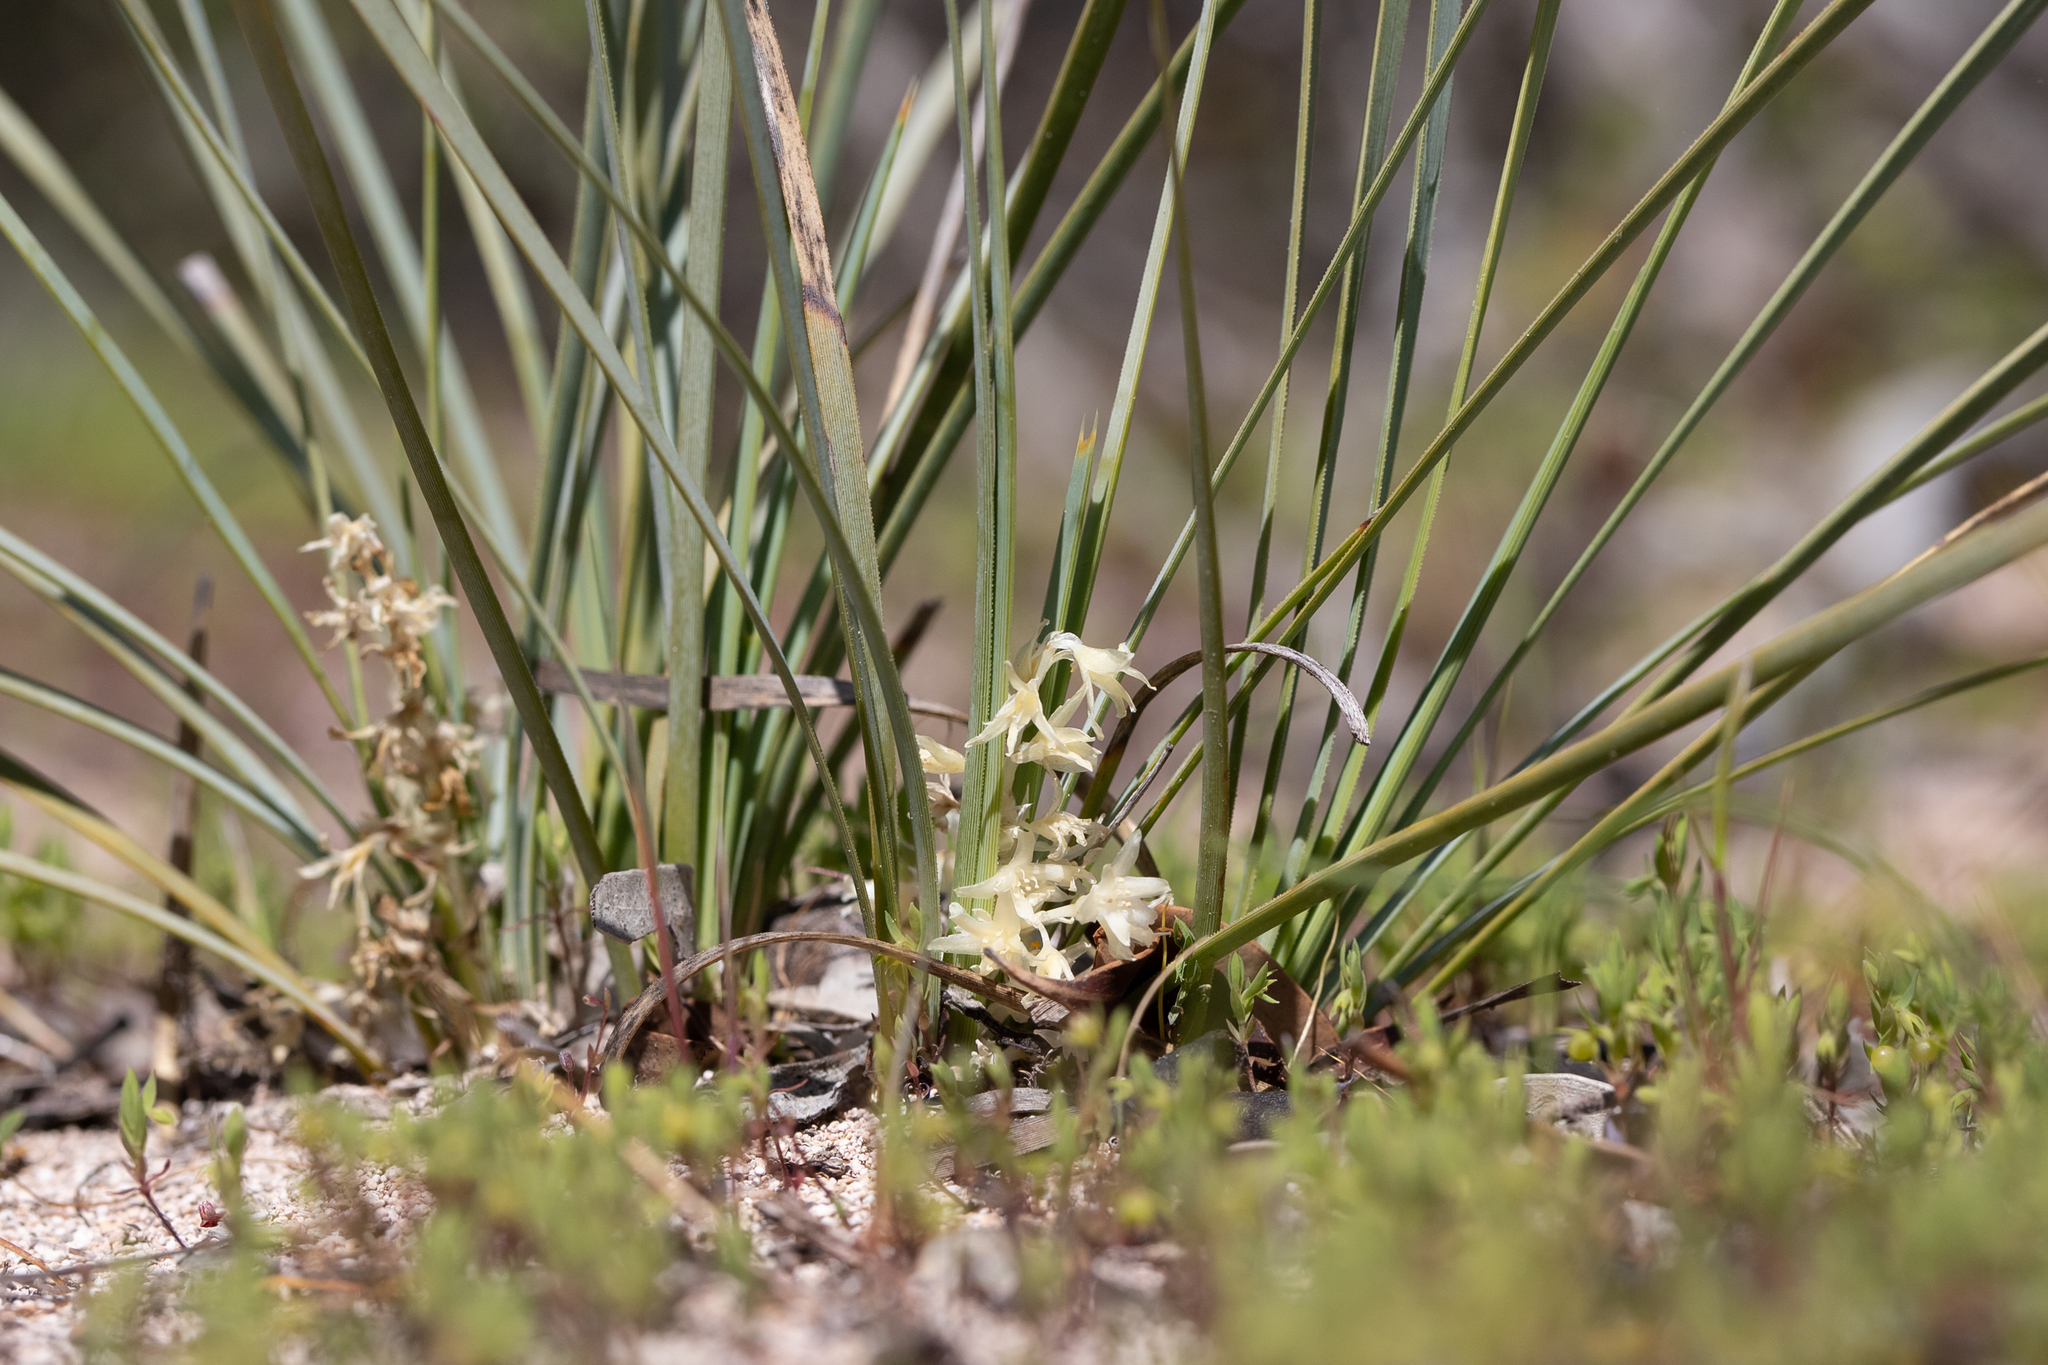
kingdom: Plantae
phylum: Tracheophyta
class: Liliopsida
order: Asparagales
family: Asparagaceae
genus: Lomandra
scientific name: Lomandra effusa
